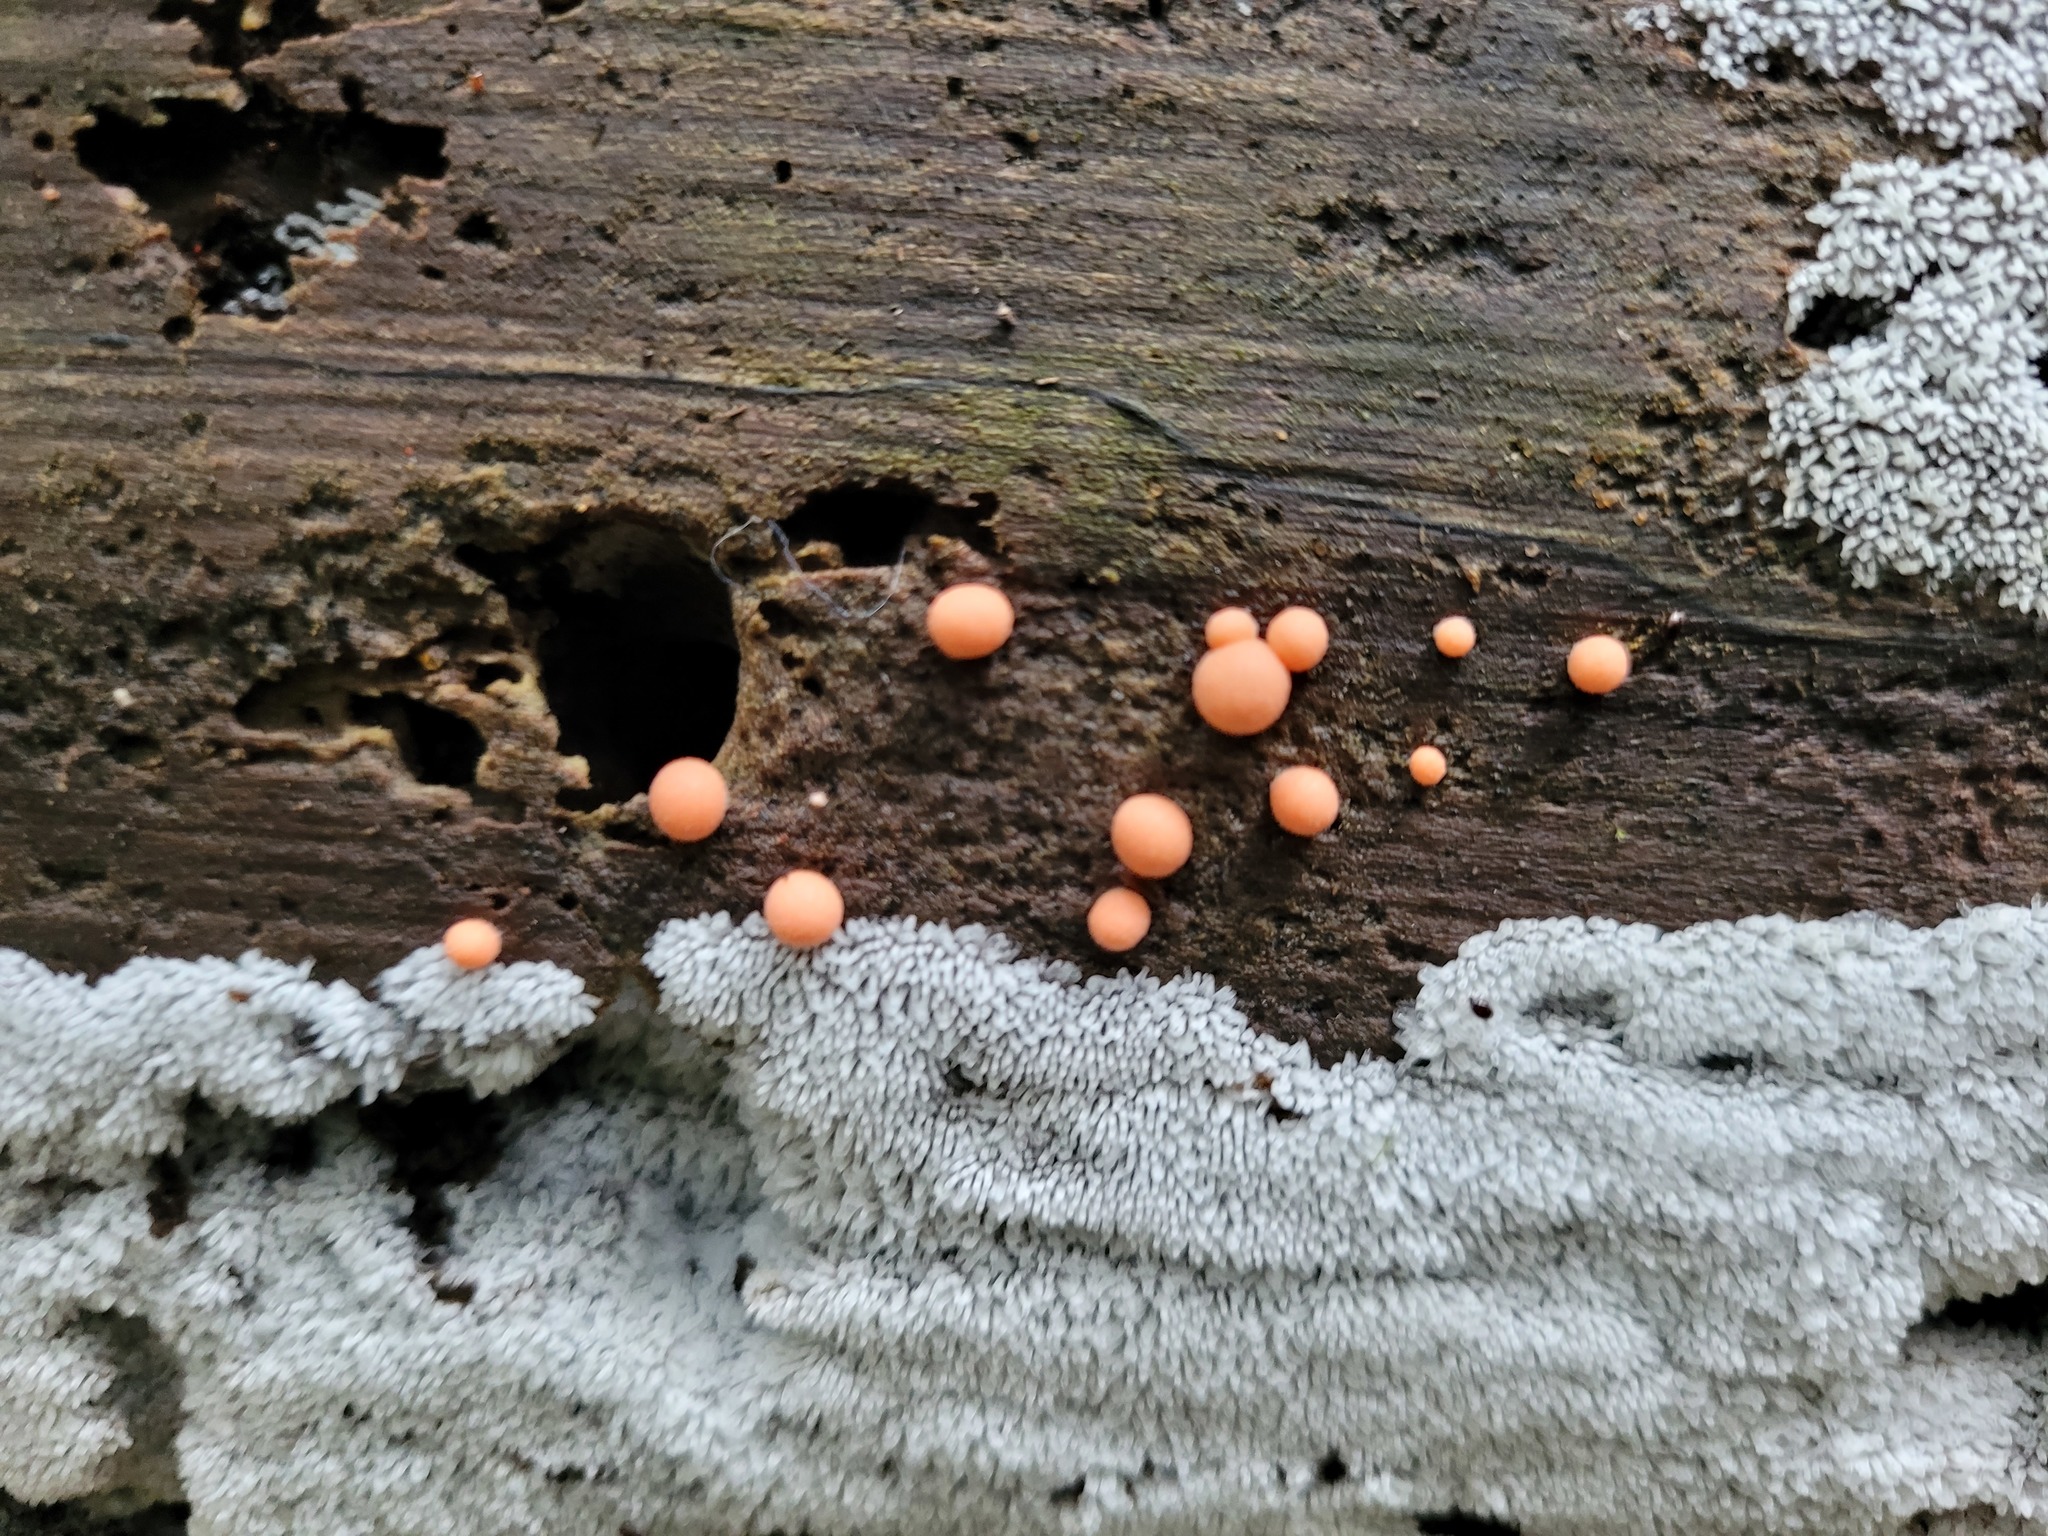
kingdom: Protozoa
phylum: Mycetozoa
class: Myxomycetes
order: Cribrariales
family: Tubiferaceae
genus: Lycogala
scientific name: Lycogala epidendrum
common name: Wolf's milk
